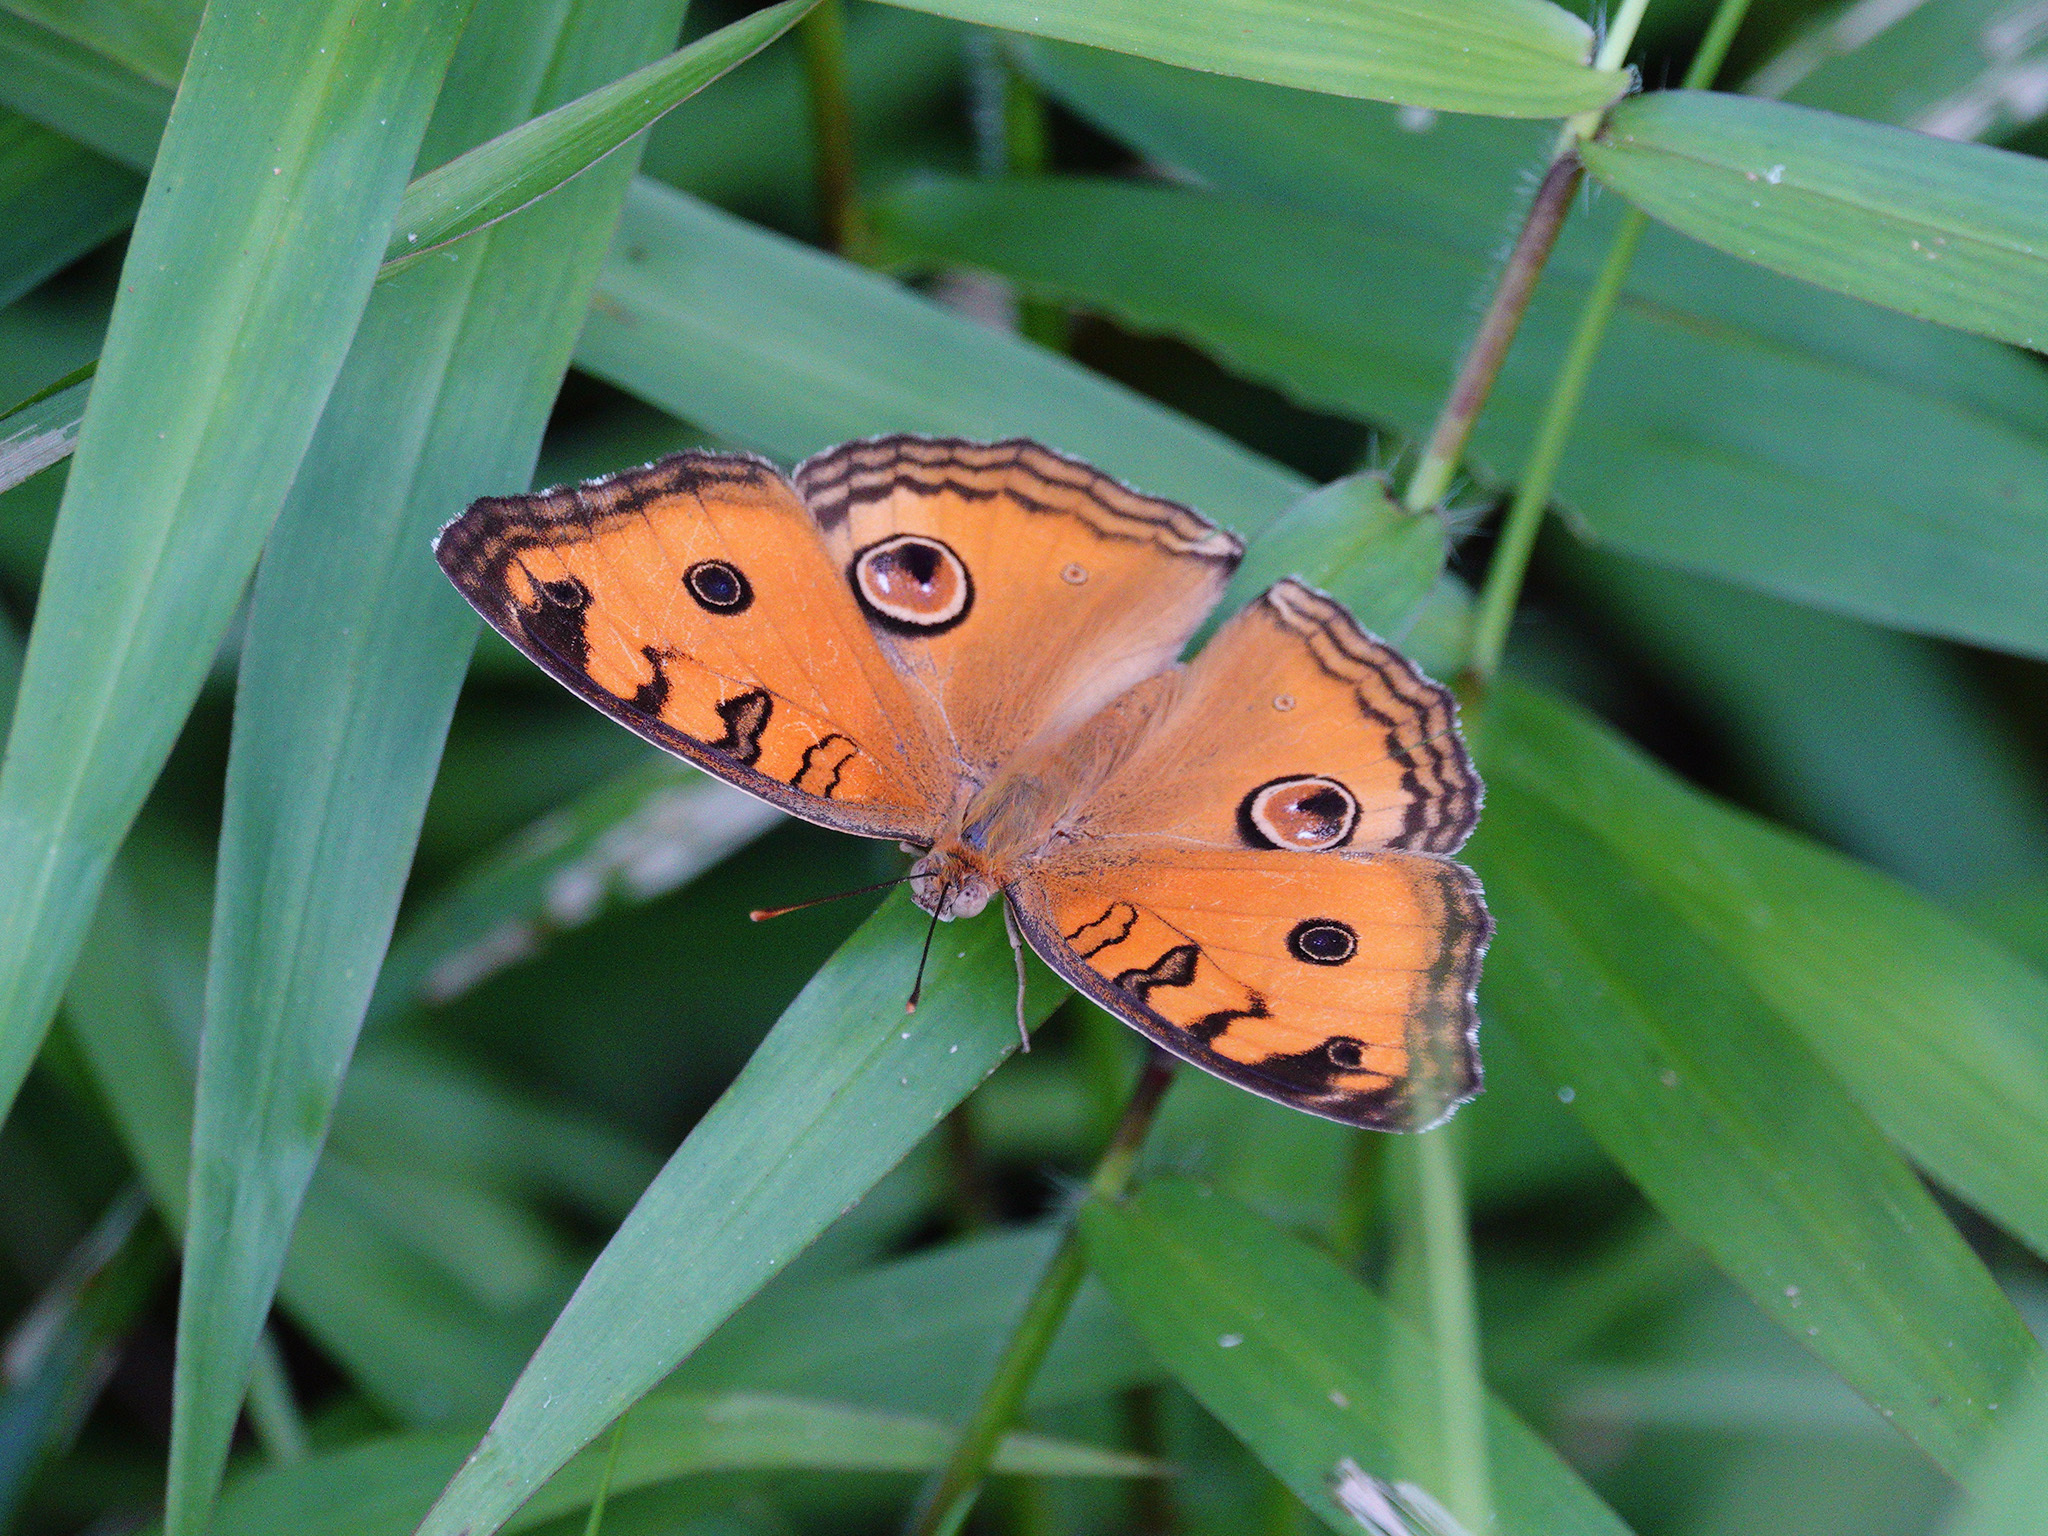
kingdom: Animalia
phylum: Arthropoda
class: Insecta
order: Lepidoptera
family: Nymphalidae
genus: Junonia
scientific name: Junonia almana
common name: Peacock pansy
